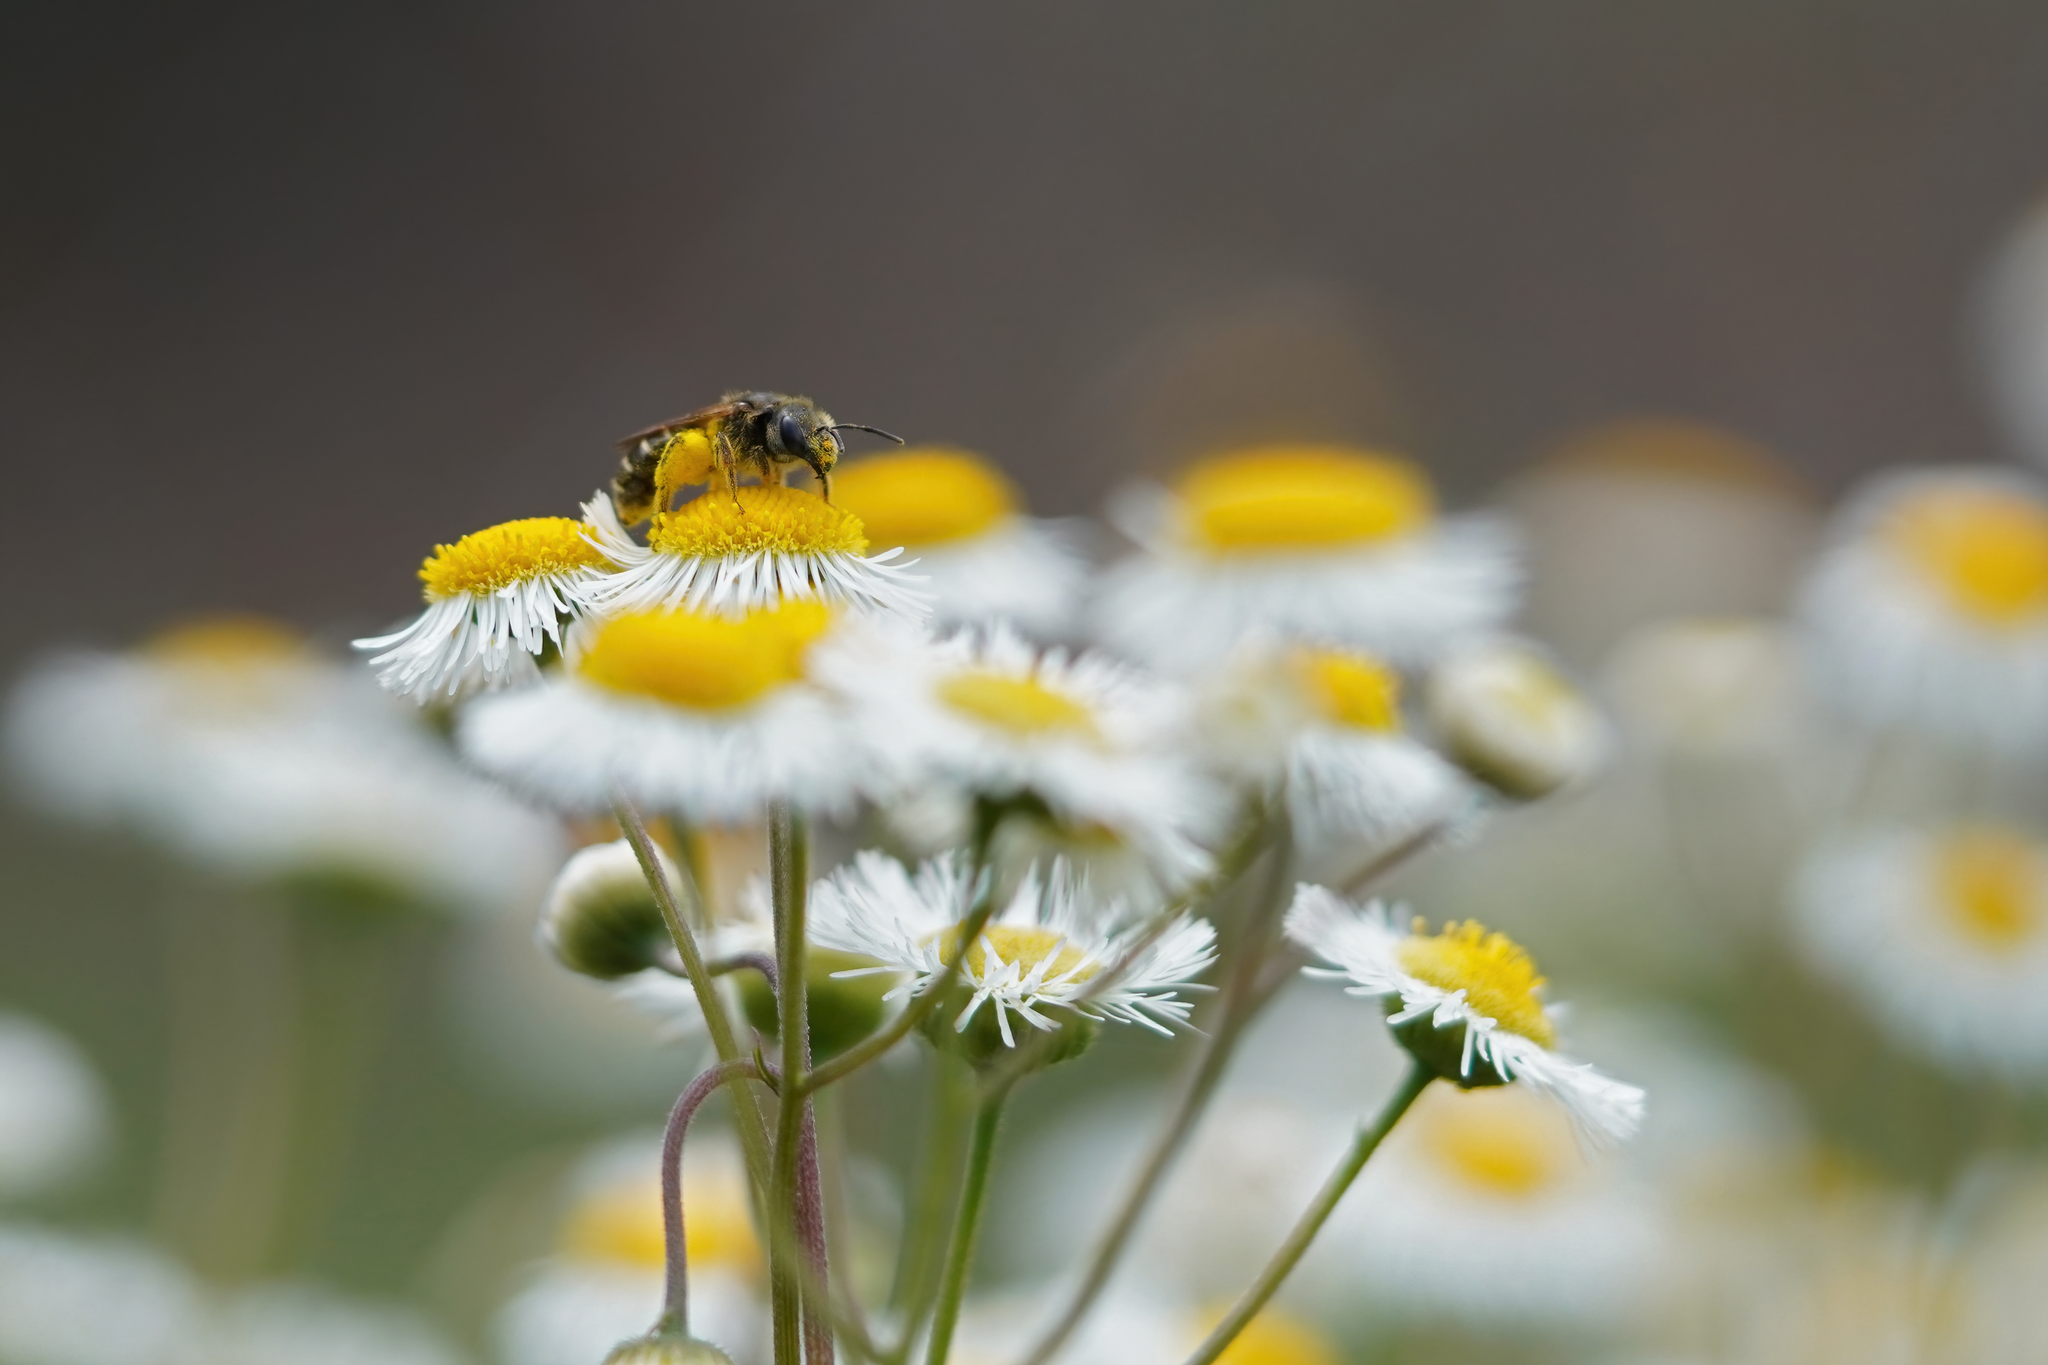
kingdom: Animalia
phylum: Arthropoda
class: Insecta
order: Hymenoptera
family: Halictidae
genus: Halictus
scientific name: Halictus poeyi
